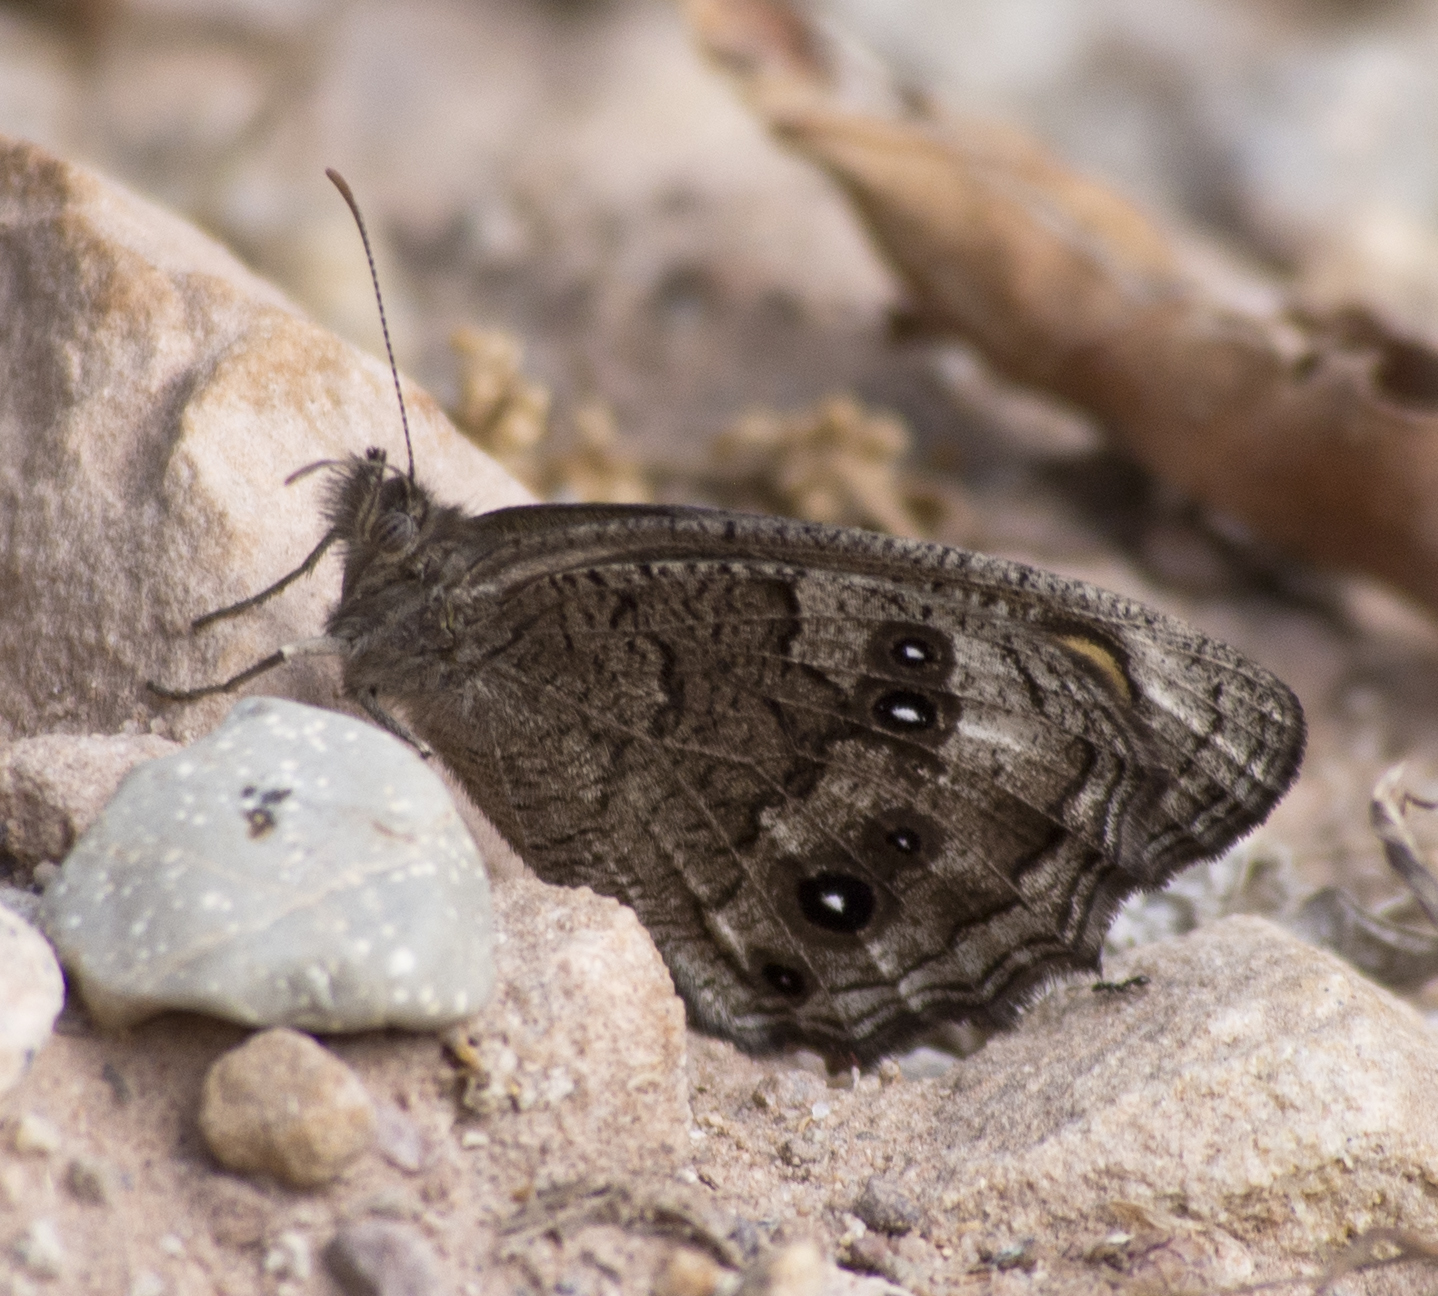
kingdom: Animalia
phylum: Arthropoda
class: Insecta
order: Lepidoptera
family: Nymphalidae
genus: Cercyonis
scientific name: Cercyonis sthenele
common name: Great basin wood-nymph
